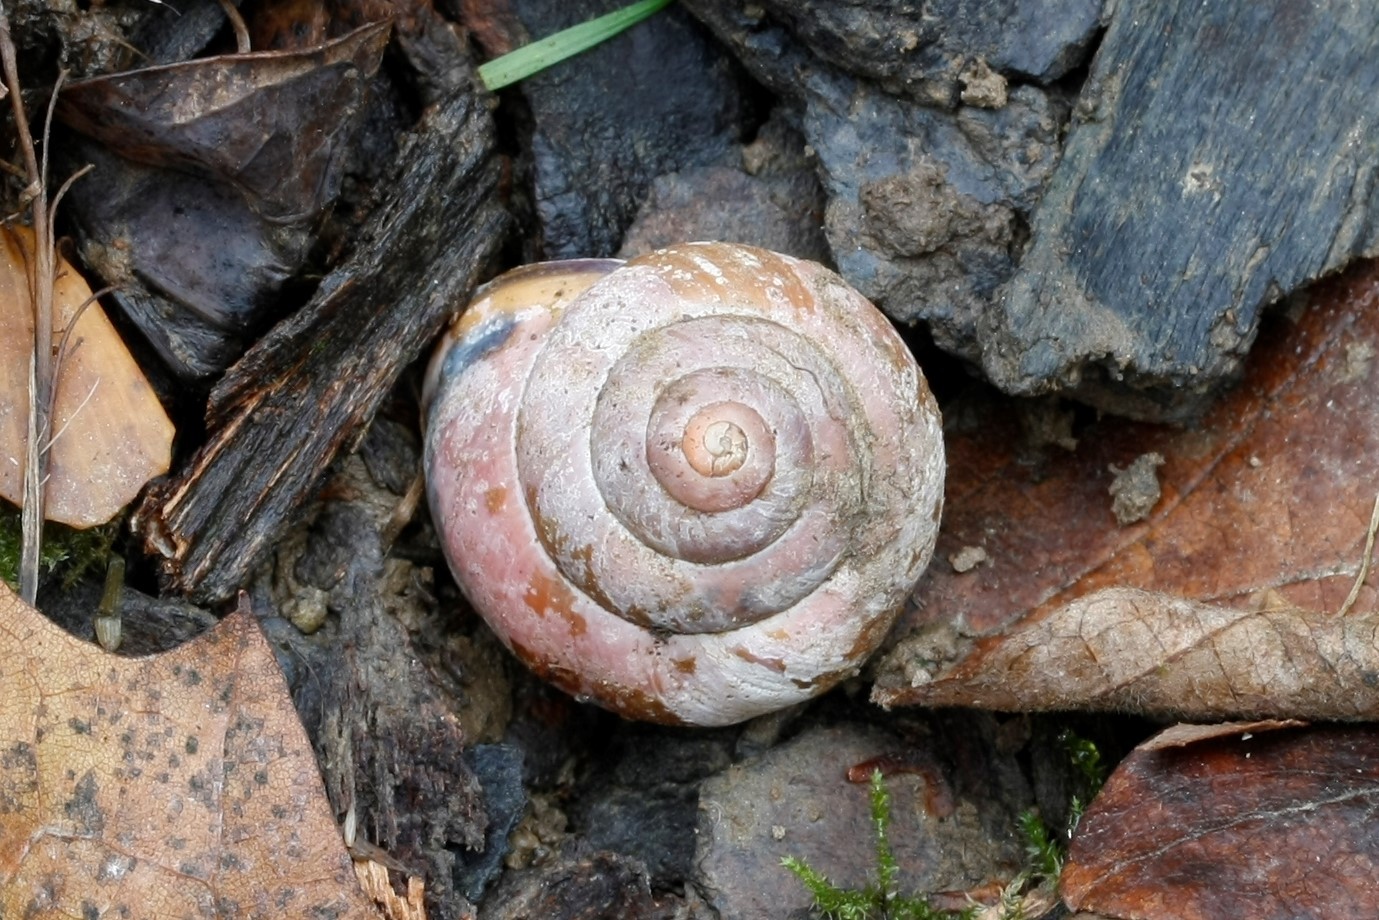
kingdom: Animalia
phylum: Mollusca
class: Gastropoda
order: Stylommatophora
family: Helicidae
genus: Cepaea
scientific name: Cepaea nemoralis
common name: Grovesnail
